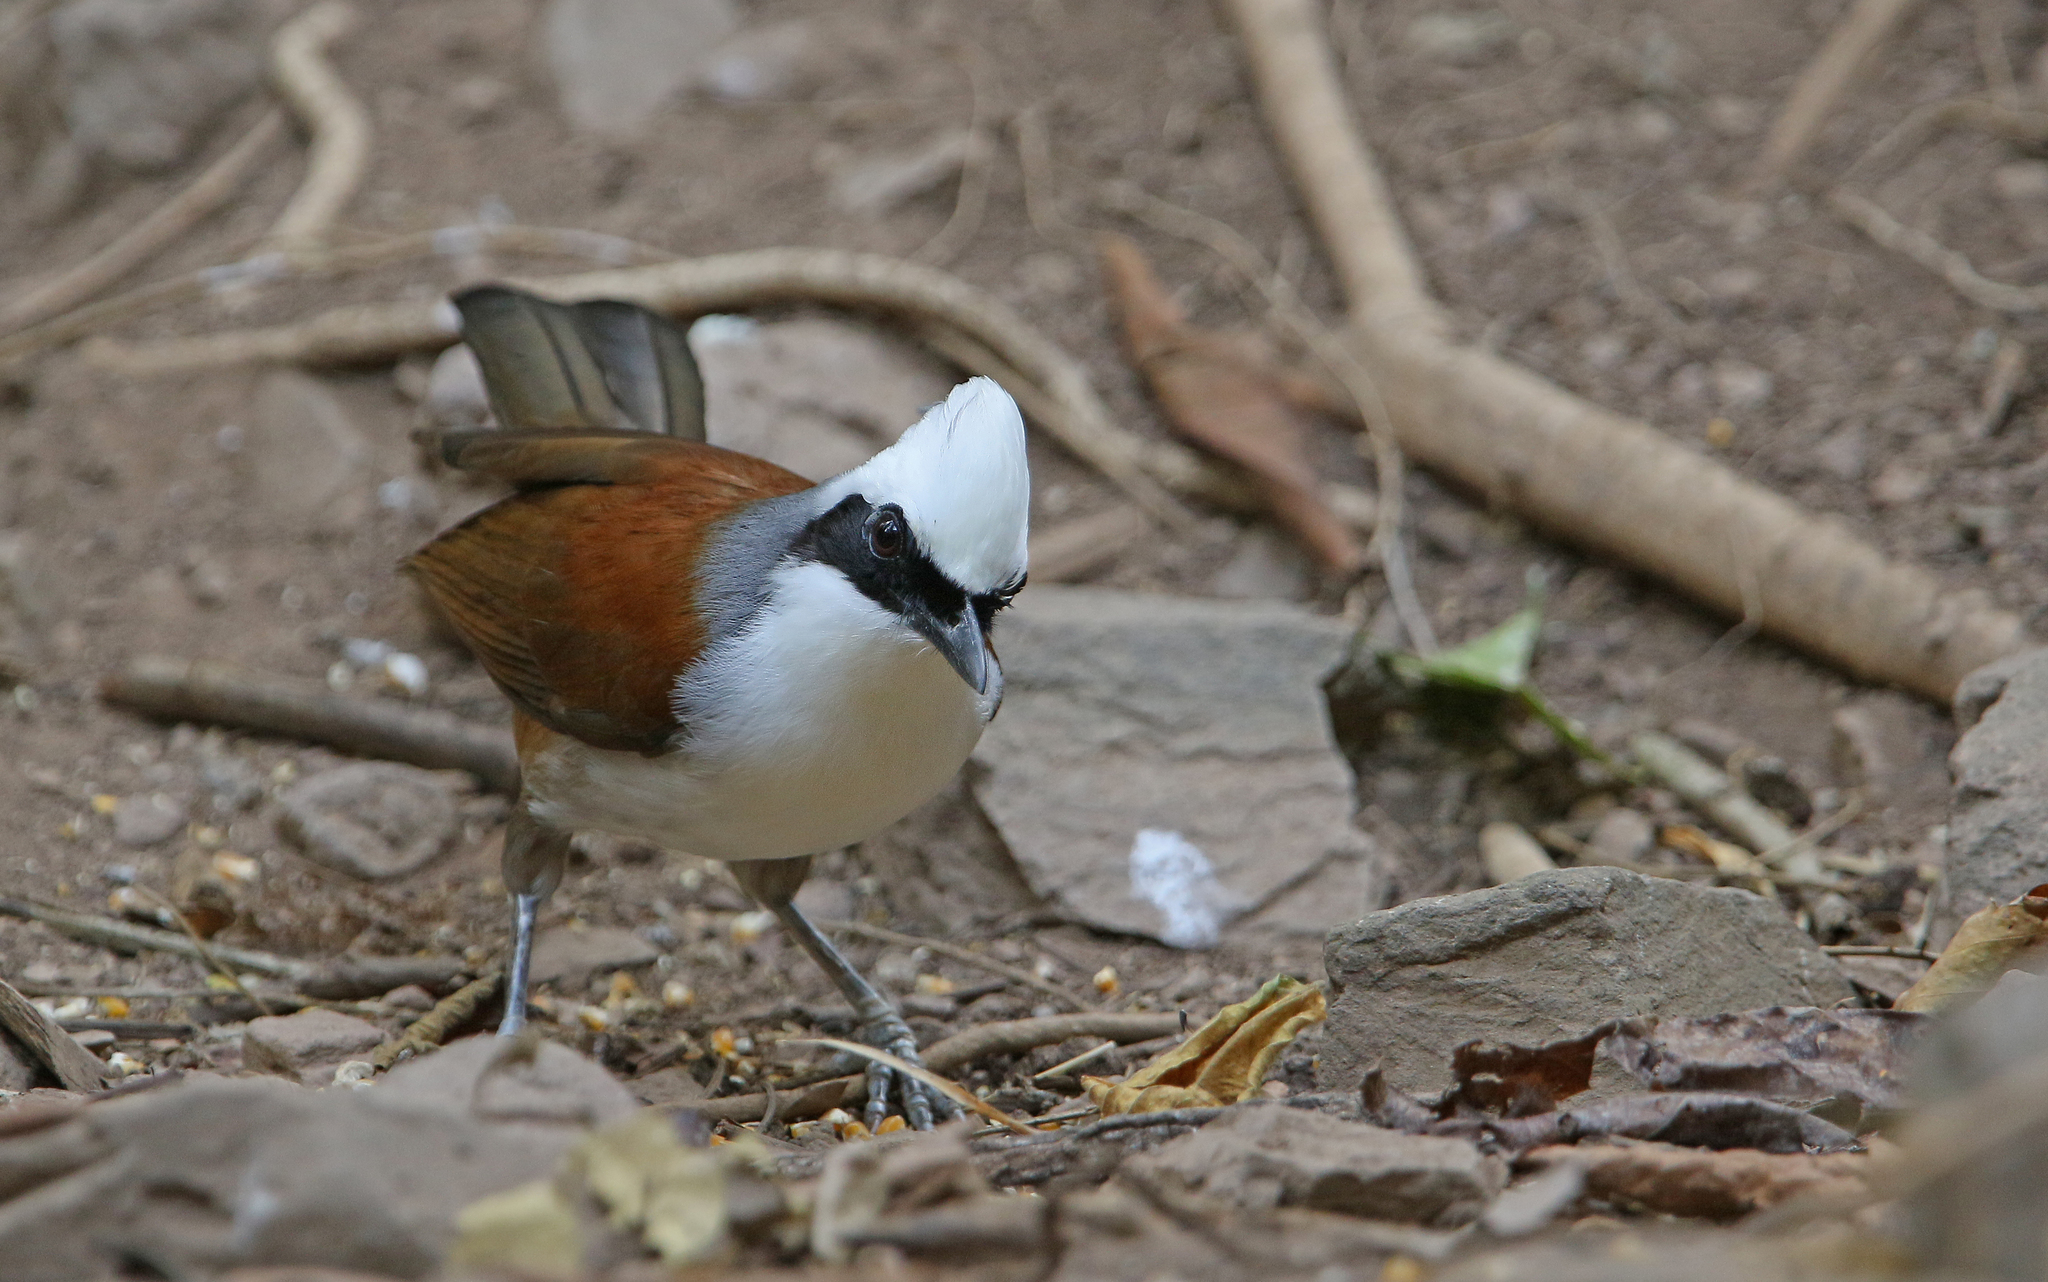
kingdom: Animalia
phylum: Chordata
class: Aves
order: Passeriformes
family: Leiothrichidae
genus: Garrulax
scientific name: Garrulax leucolophus
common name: White-crested laughingthrush
